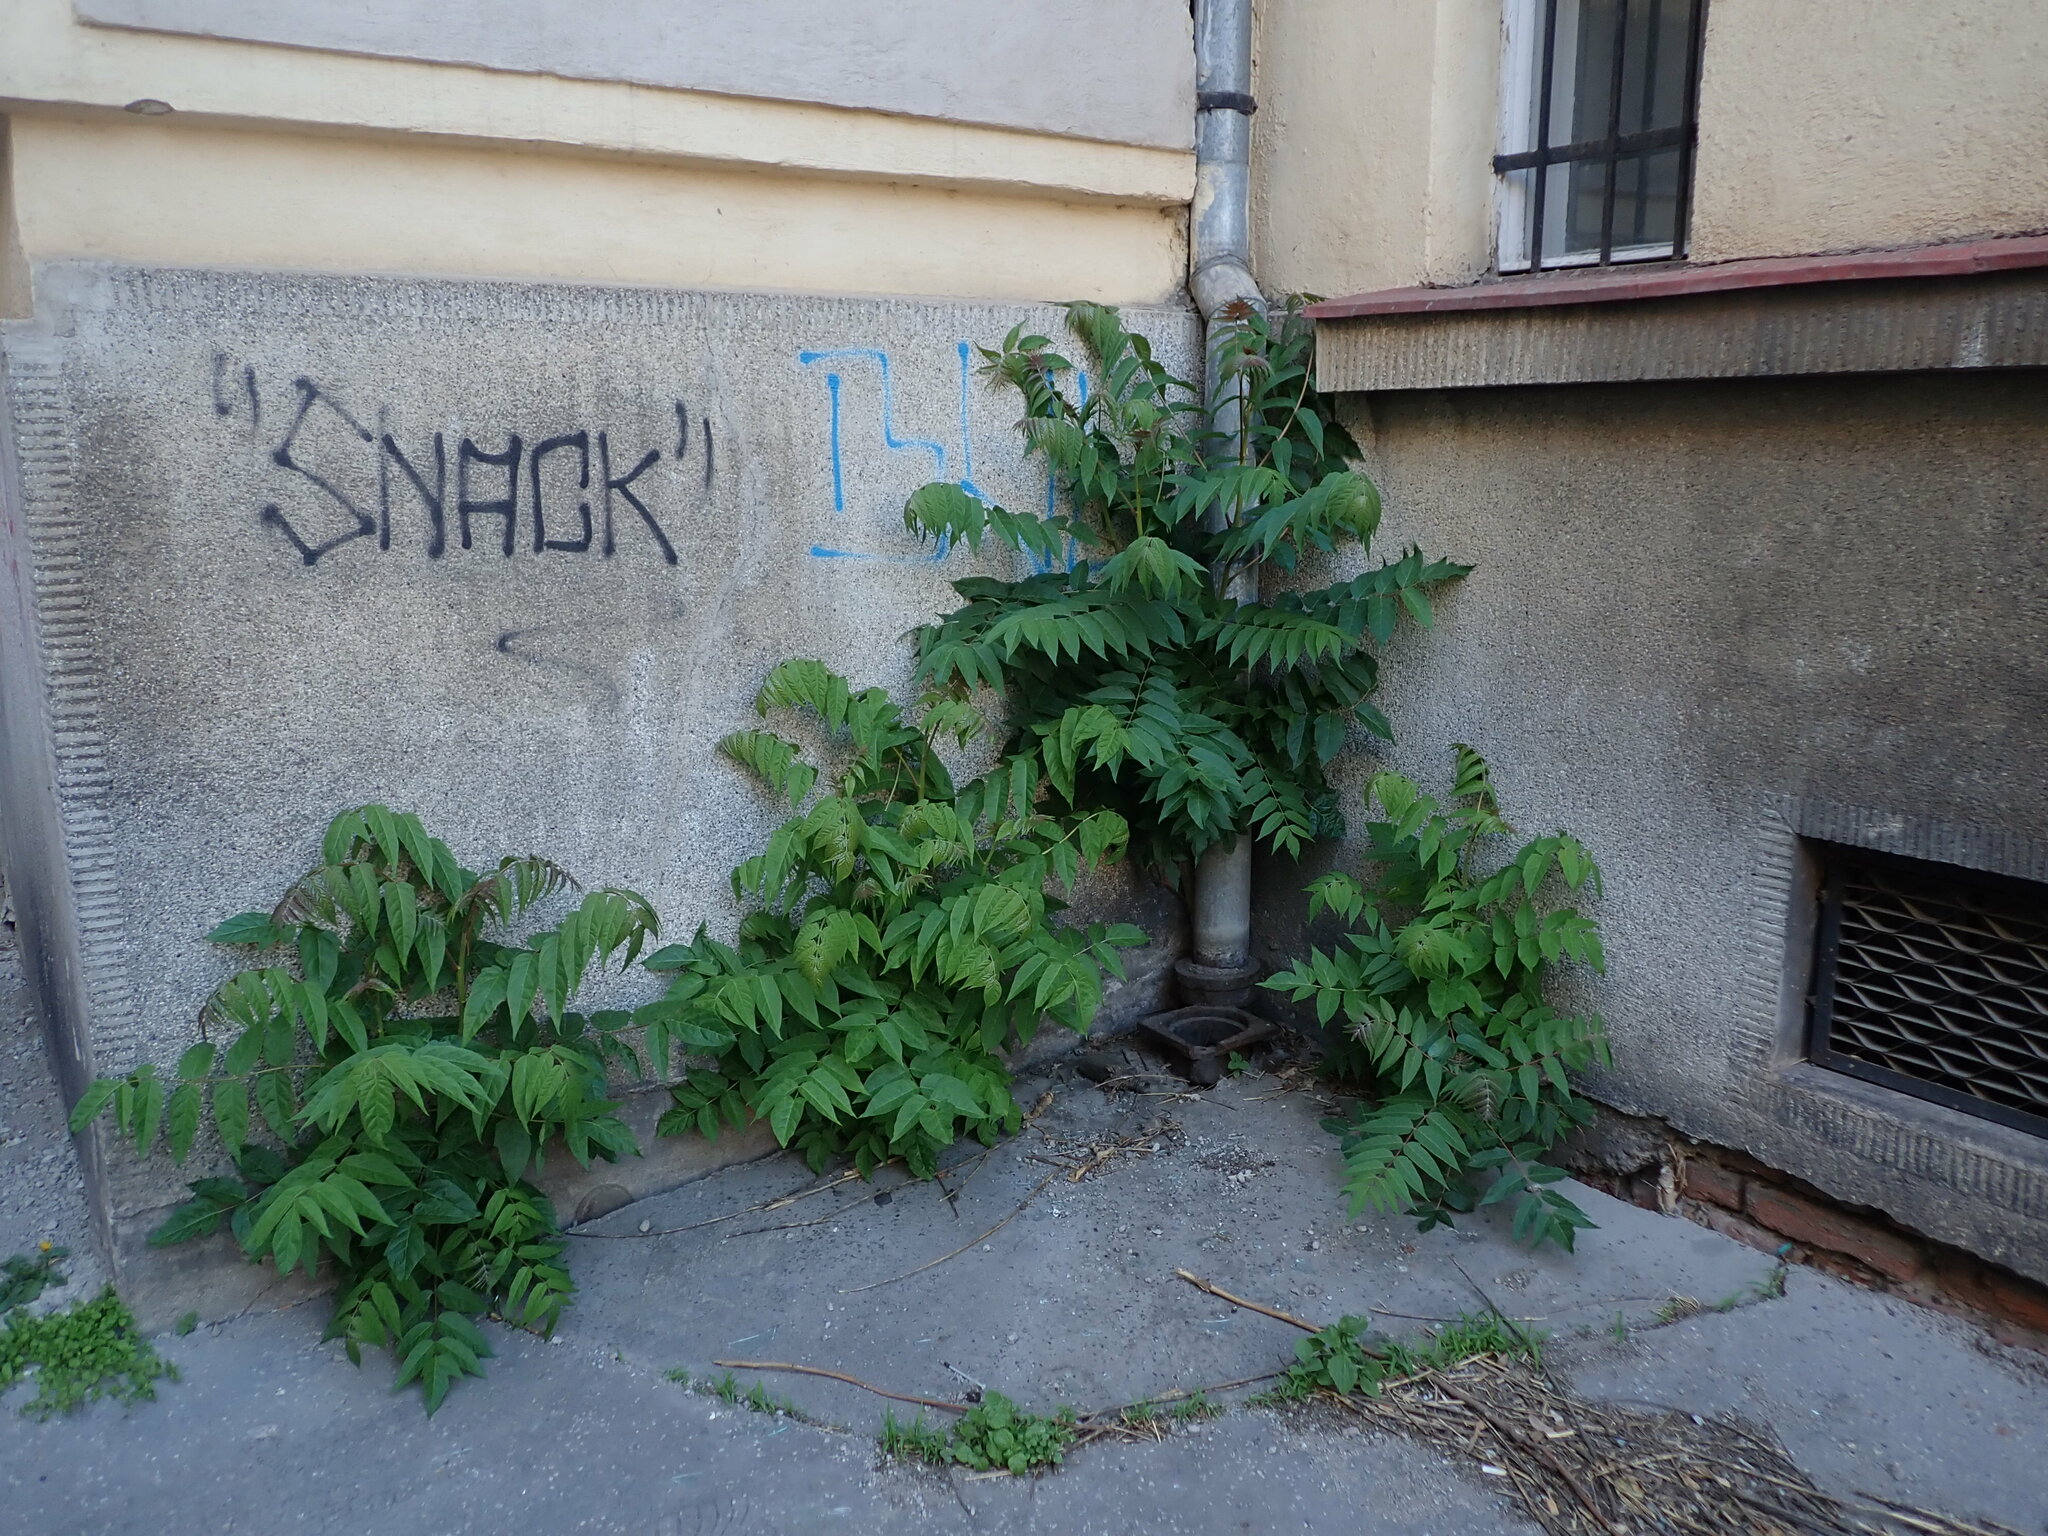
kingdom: Plantae
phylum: Tracheophyta
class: Magnoliopsida
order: Sapindales
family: Simaroubaceae
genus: Ailanthus
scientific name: Ailanthus altissima
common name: Tree-of-heaven
